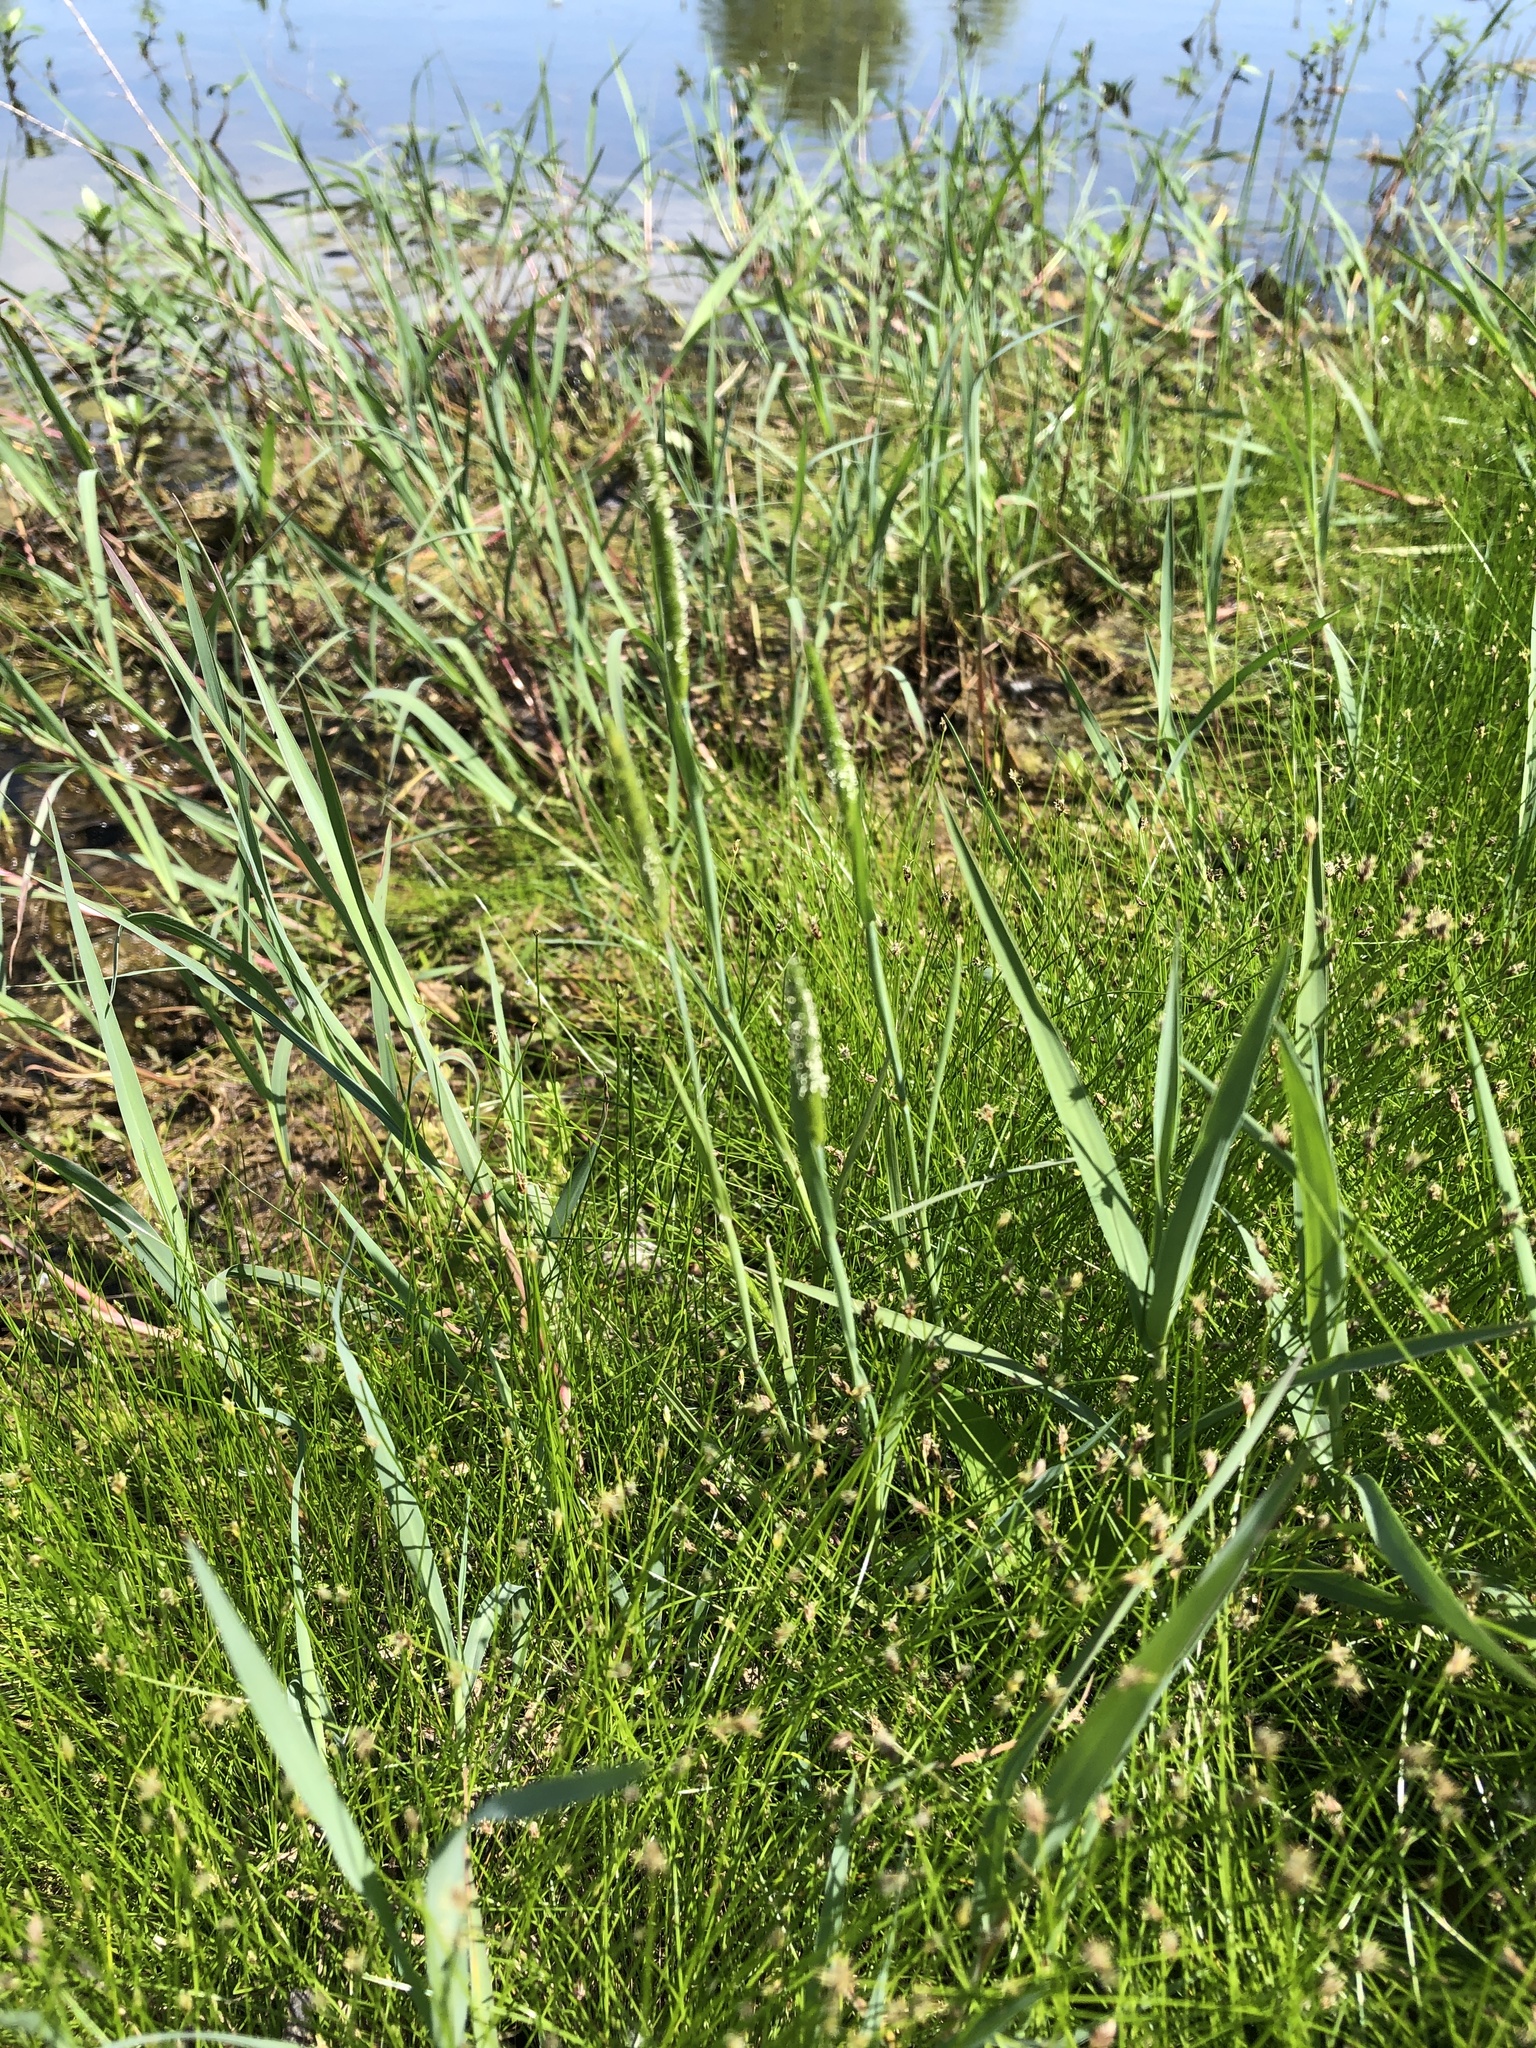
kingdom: Plantae
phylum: Tracheophyta
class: Liliopsida
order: Poales
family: Poaceae
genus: Alopecurus
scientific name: Alopecurus carolinianus
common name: Tufted foxtail
